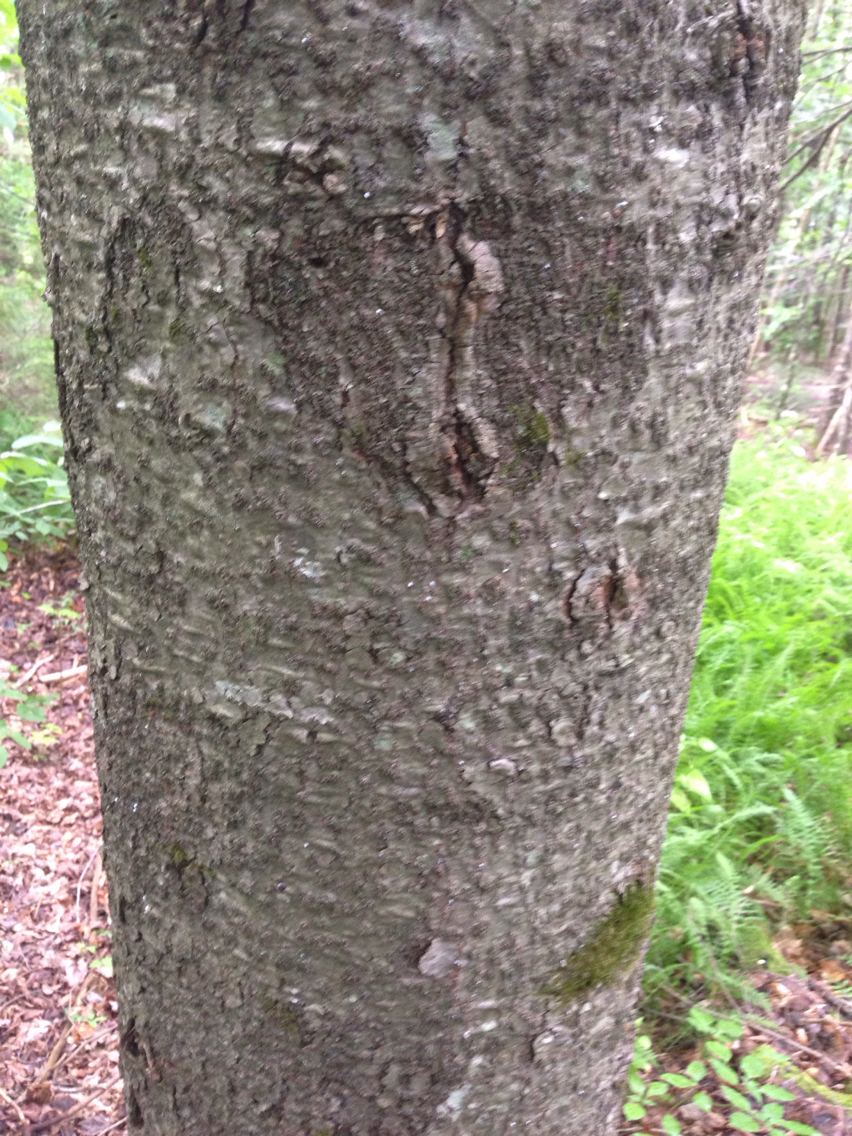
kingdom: Plantae
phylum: Tracheophyta
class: Pinopsida
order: Pinales
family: Pinaceae
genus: Abies
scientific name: Abies balsamea
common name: Balsam fir
